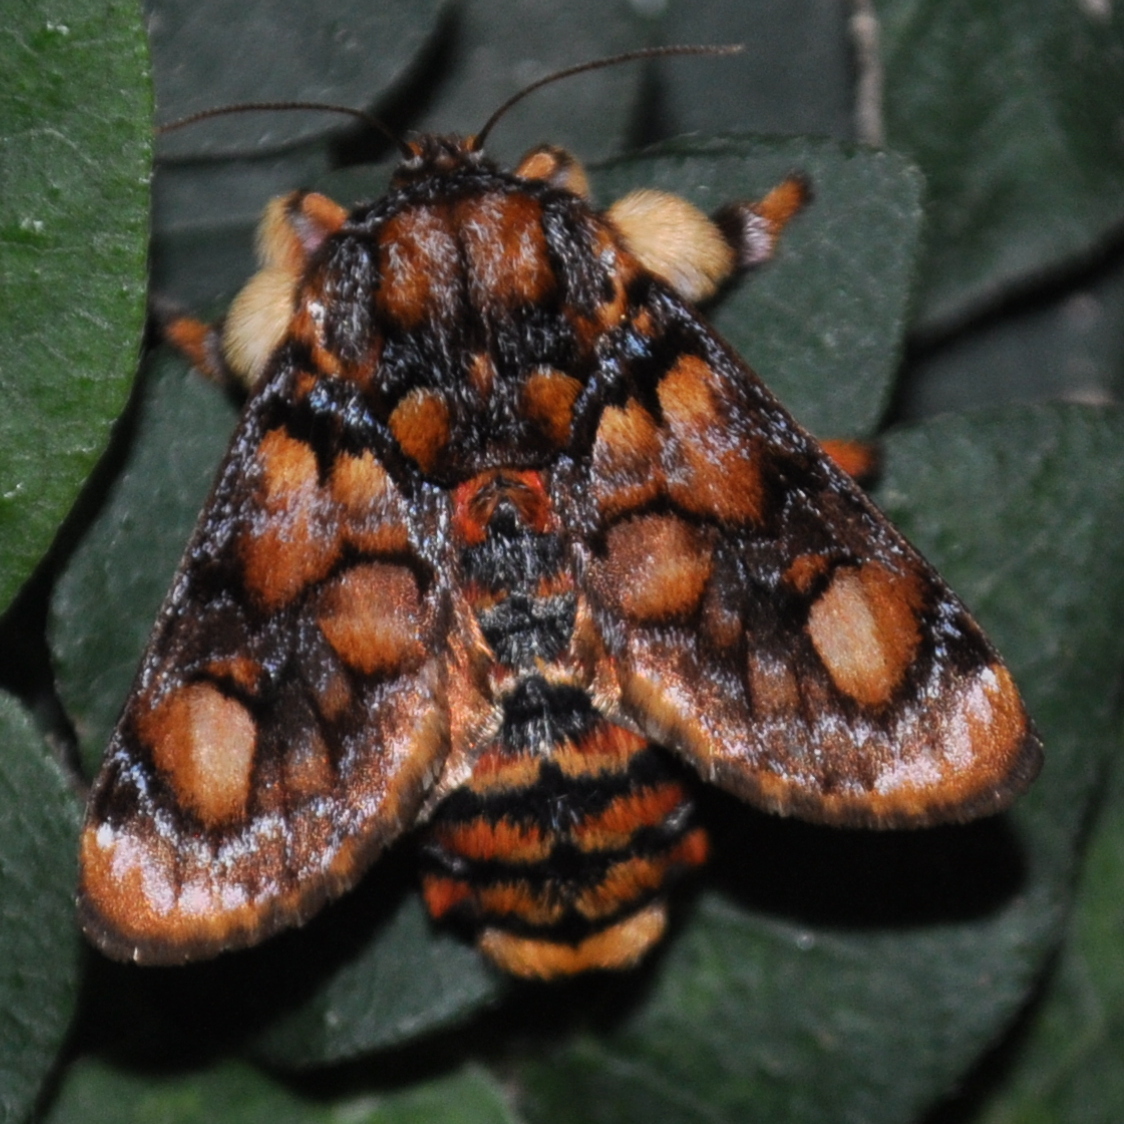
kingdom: Animalia
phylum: Arthropoda
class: Insecta
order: Lepidoptera
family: Limacodidae
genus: Phobetron
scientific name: Phobetron hipparchia
